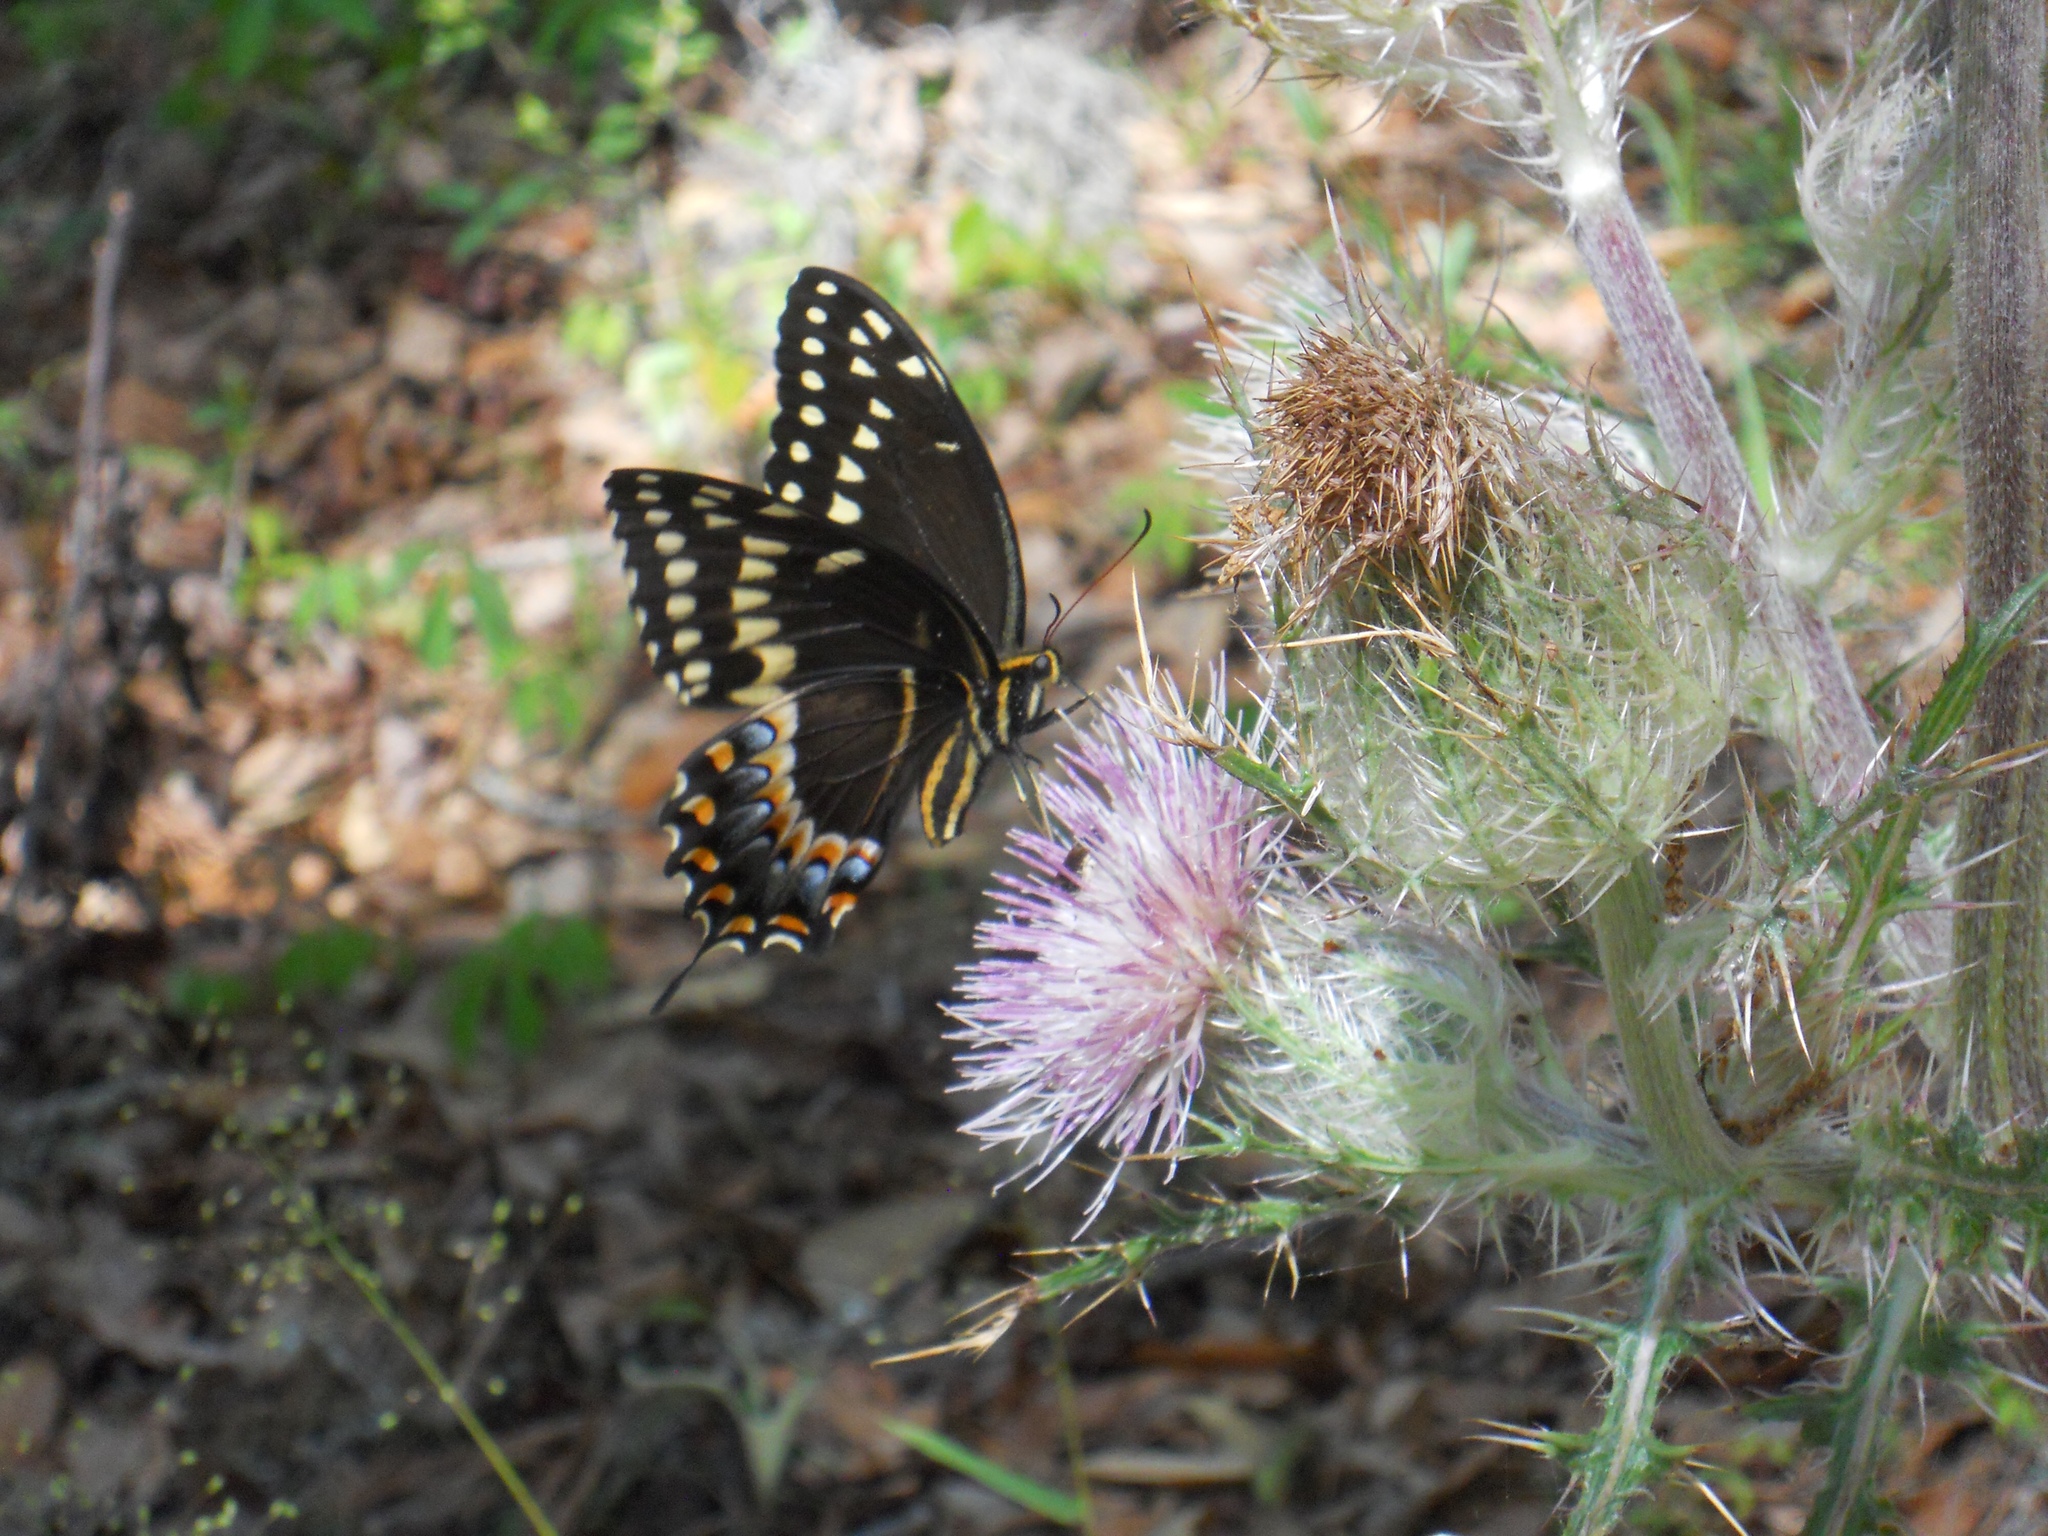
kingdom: Animalia
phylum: Arthropoda
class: Insecta
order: Lepidoptera
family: Papilionidae
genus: Papilio
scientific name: Papilio palamedes
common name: Palamedes swallowtail
